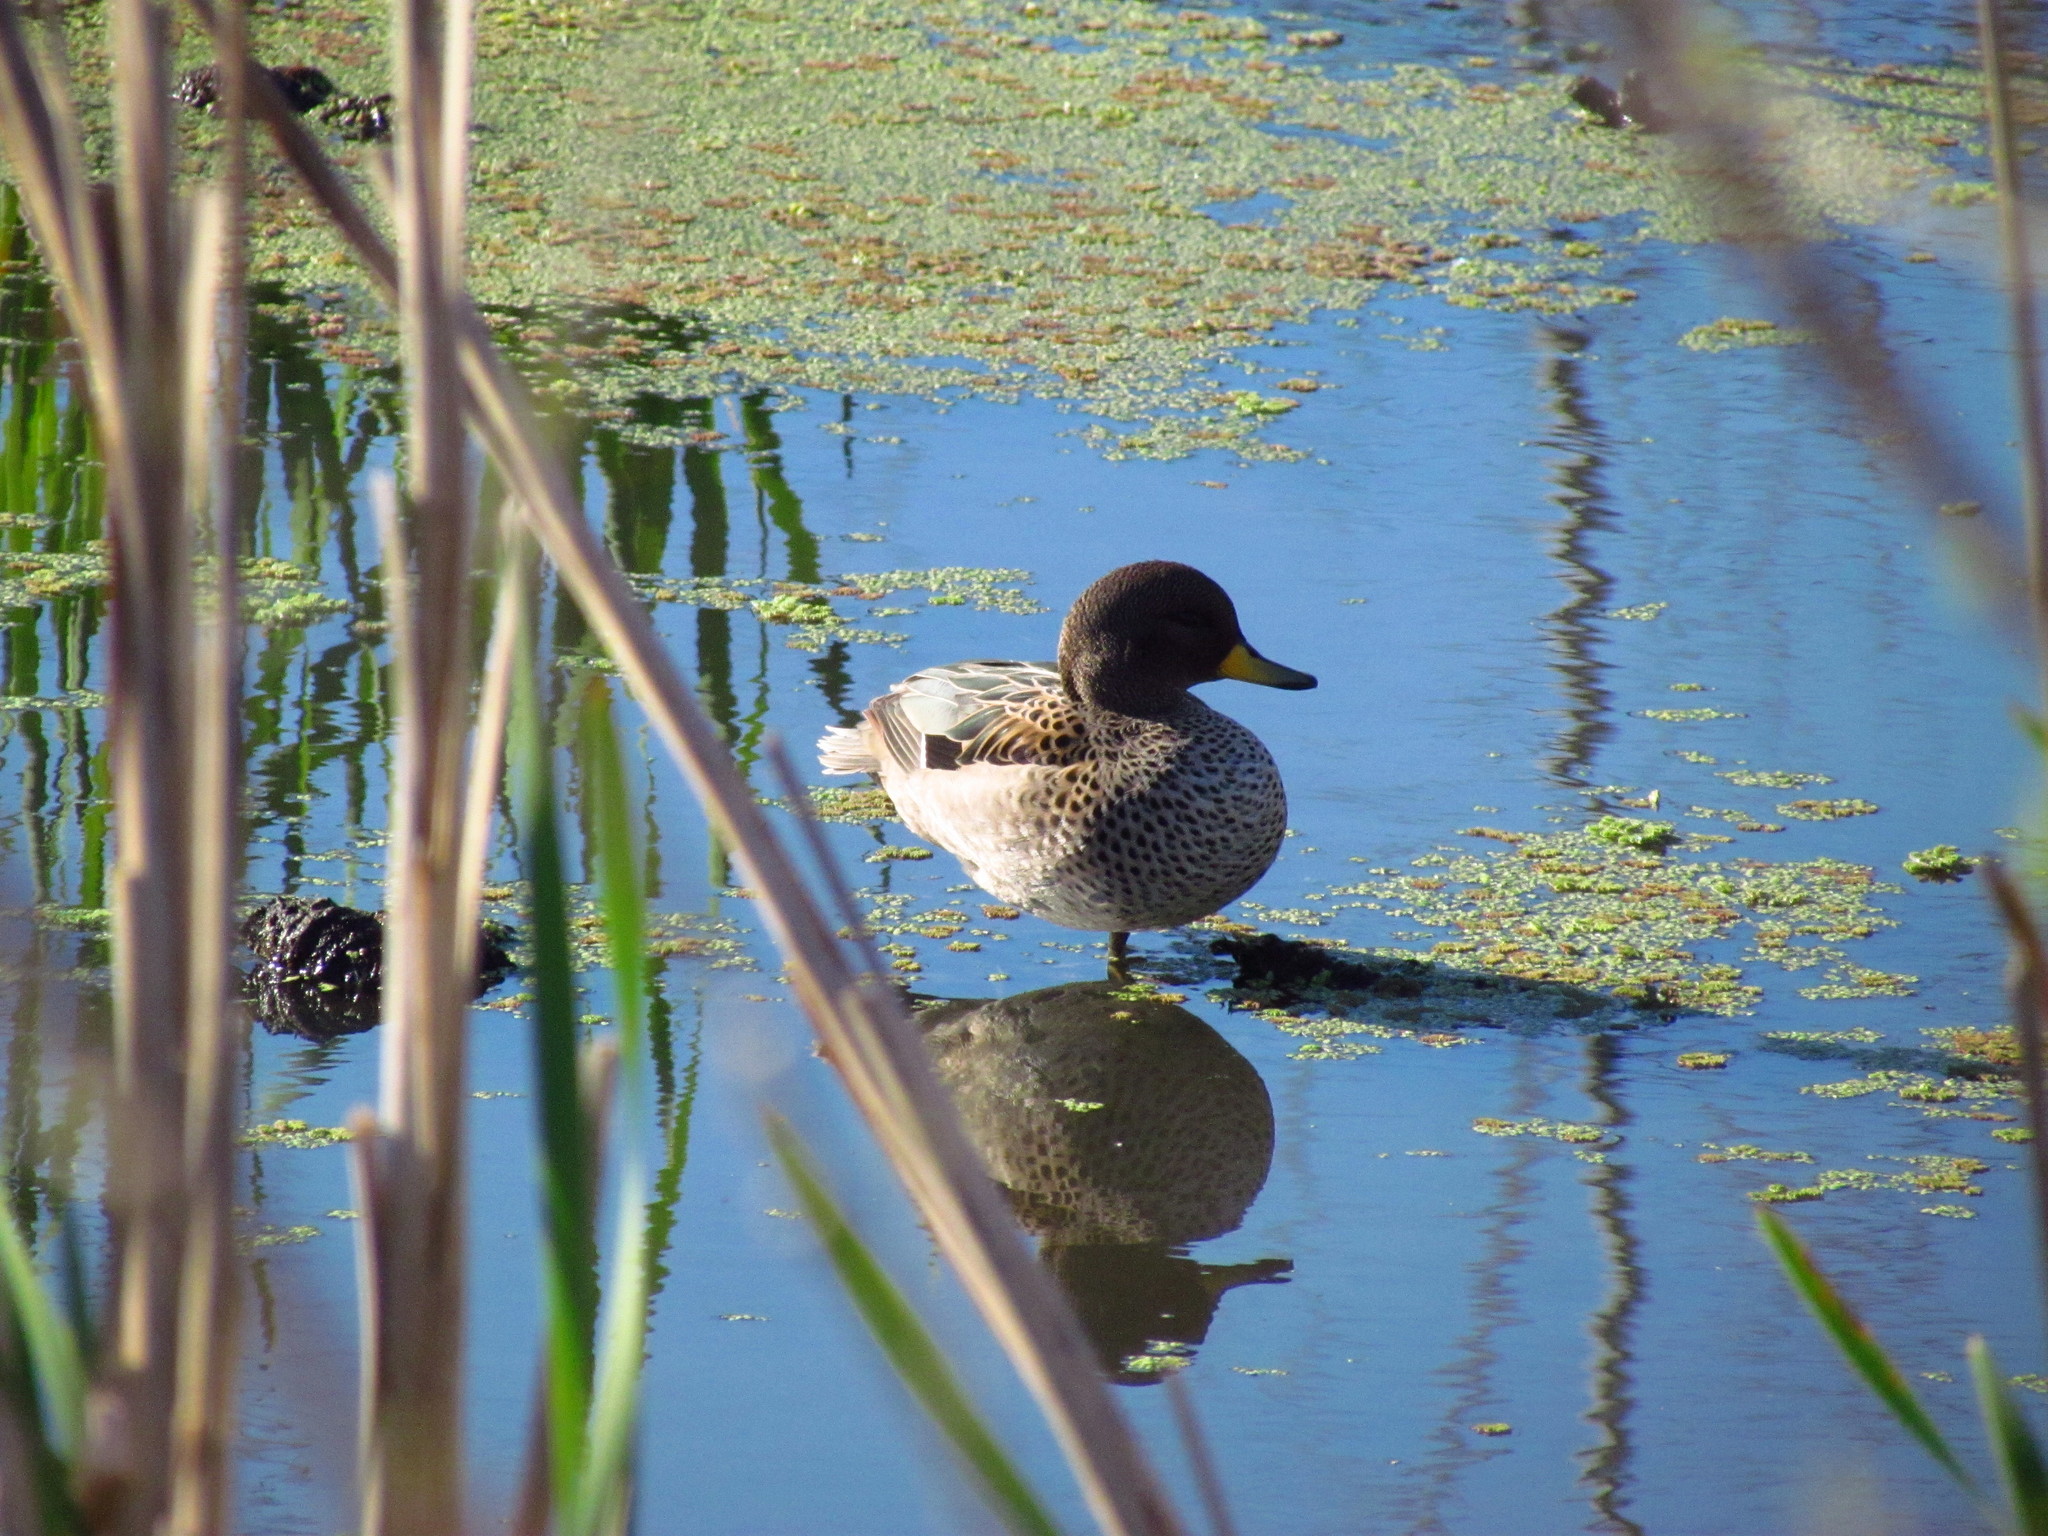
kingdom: Animalia
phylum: Chordata
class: Aves
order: Anseriformes
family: Anatidae
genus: Anas
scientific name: Anas flavirostris
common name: Yellow-billed teal
